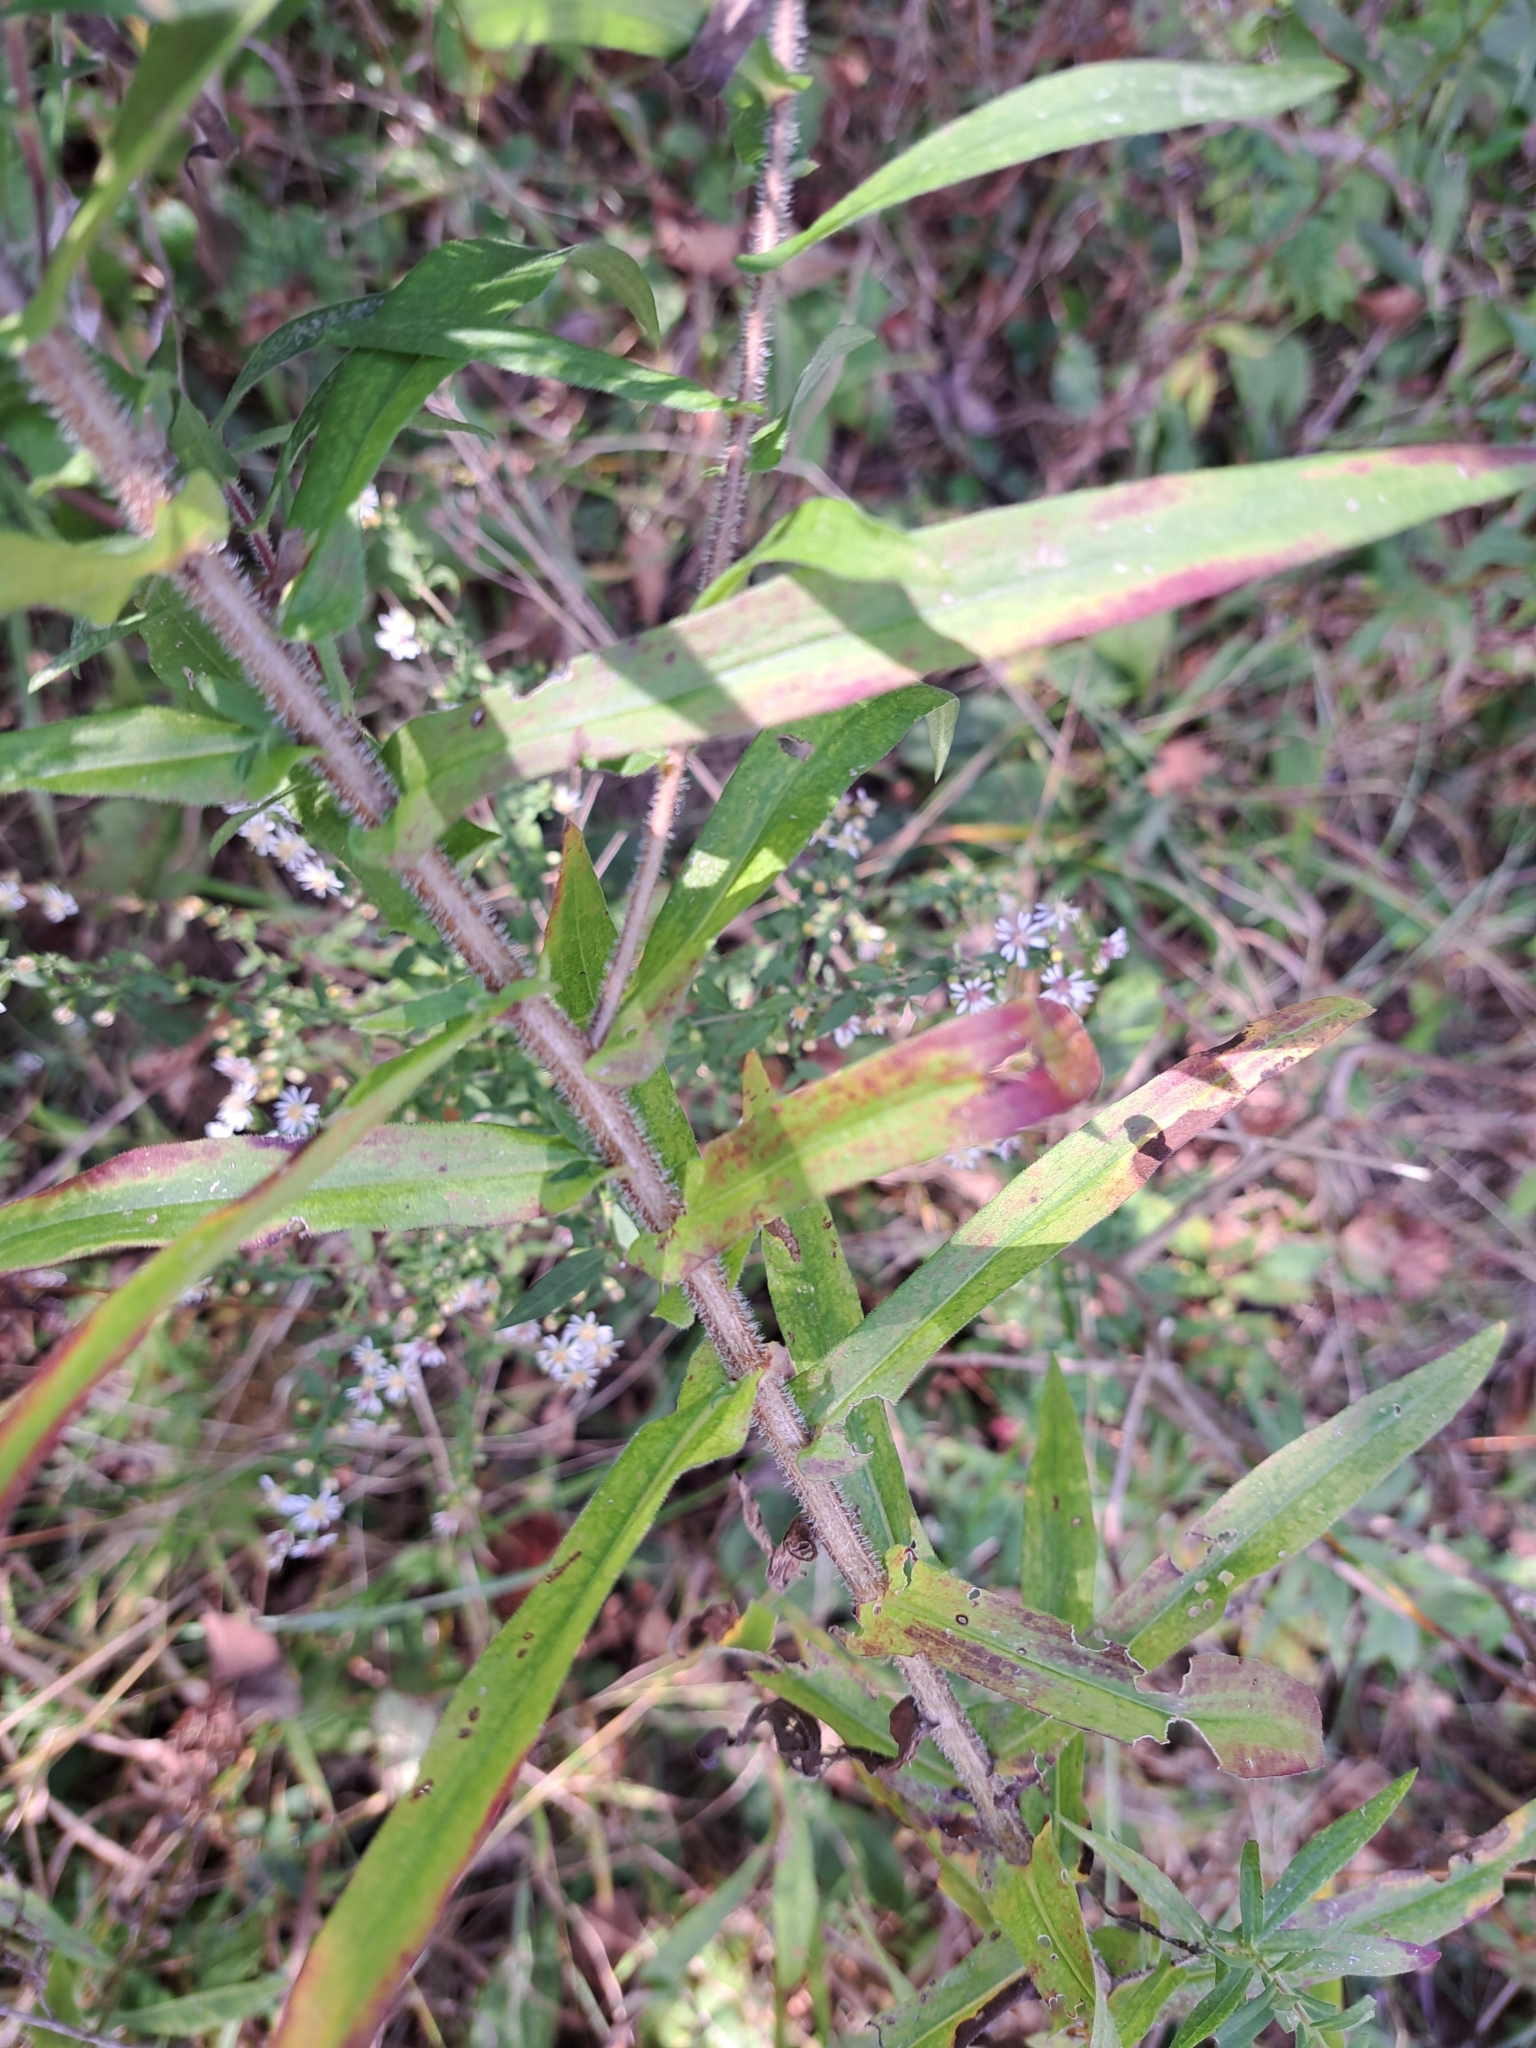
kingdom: Plantae
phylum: Tracheophyta
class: Magnoliopsida
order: Asterales
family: Asteraceae
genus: Symphyotrichum
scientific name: Symphyotrichum novae-angliae
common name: Michaelmas daisy
